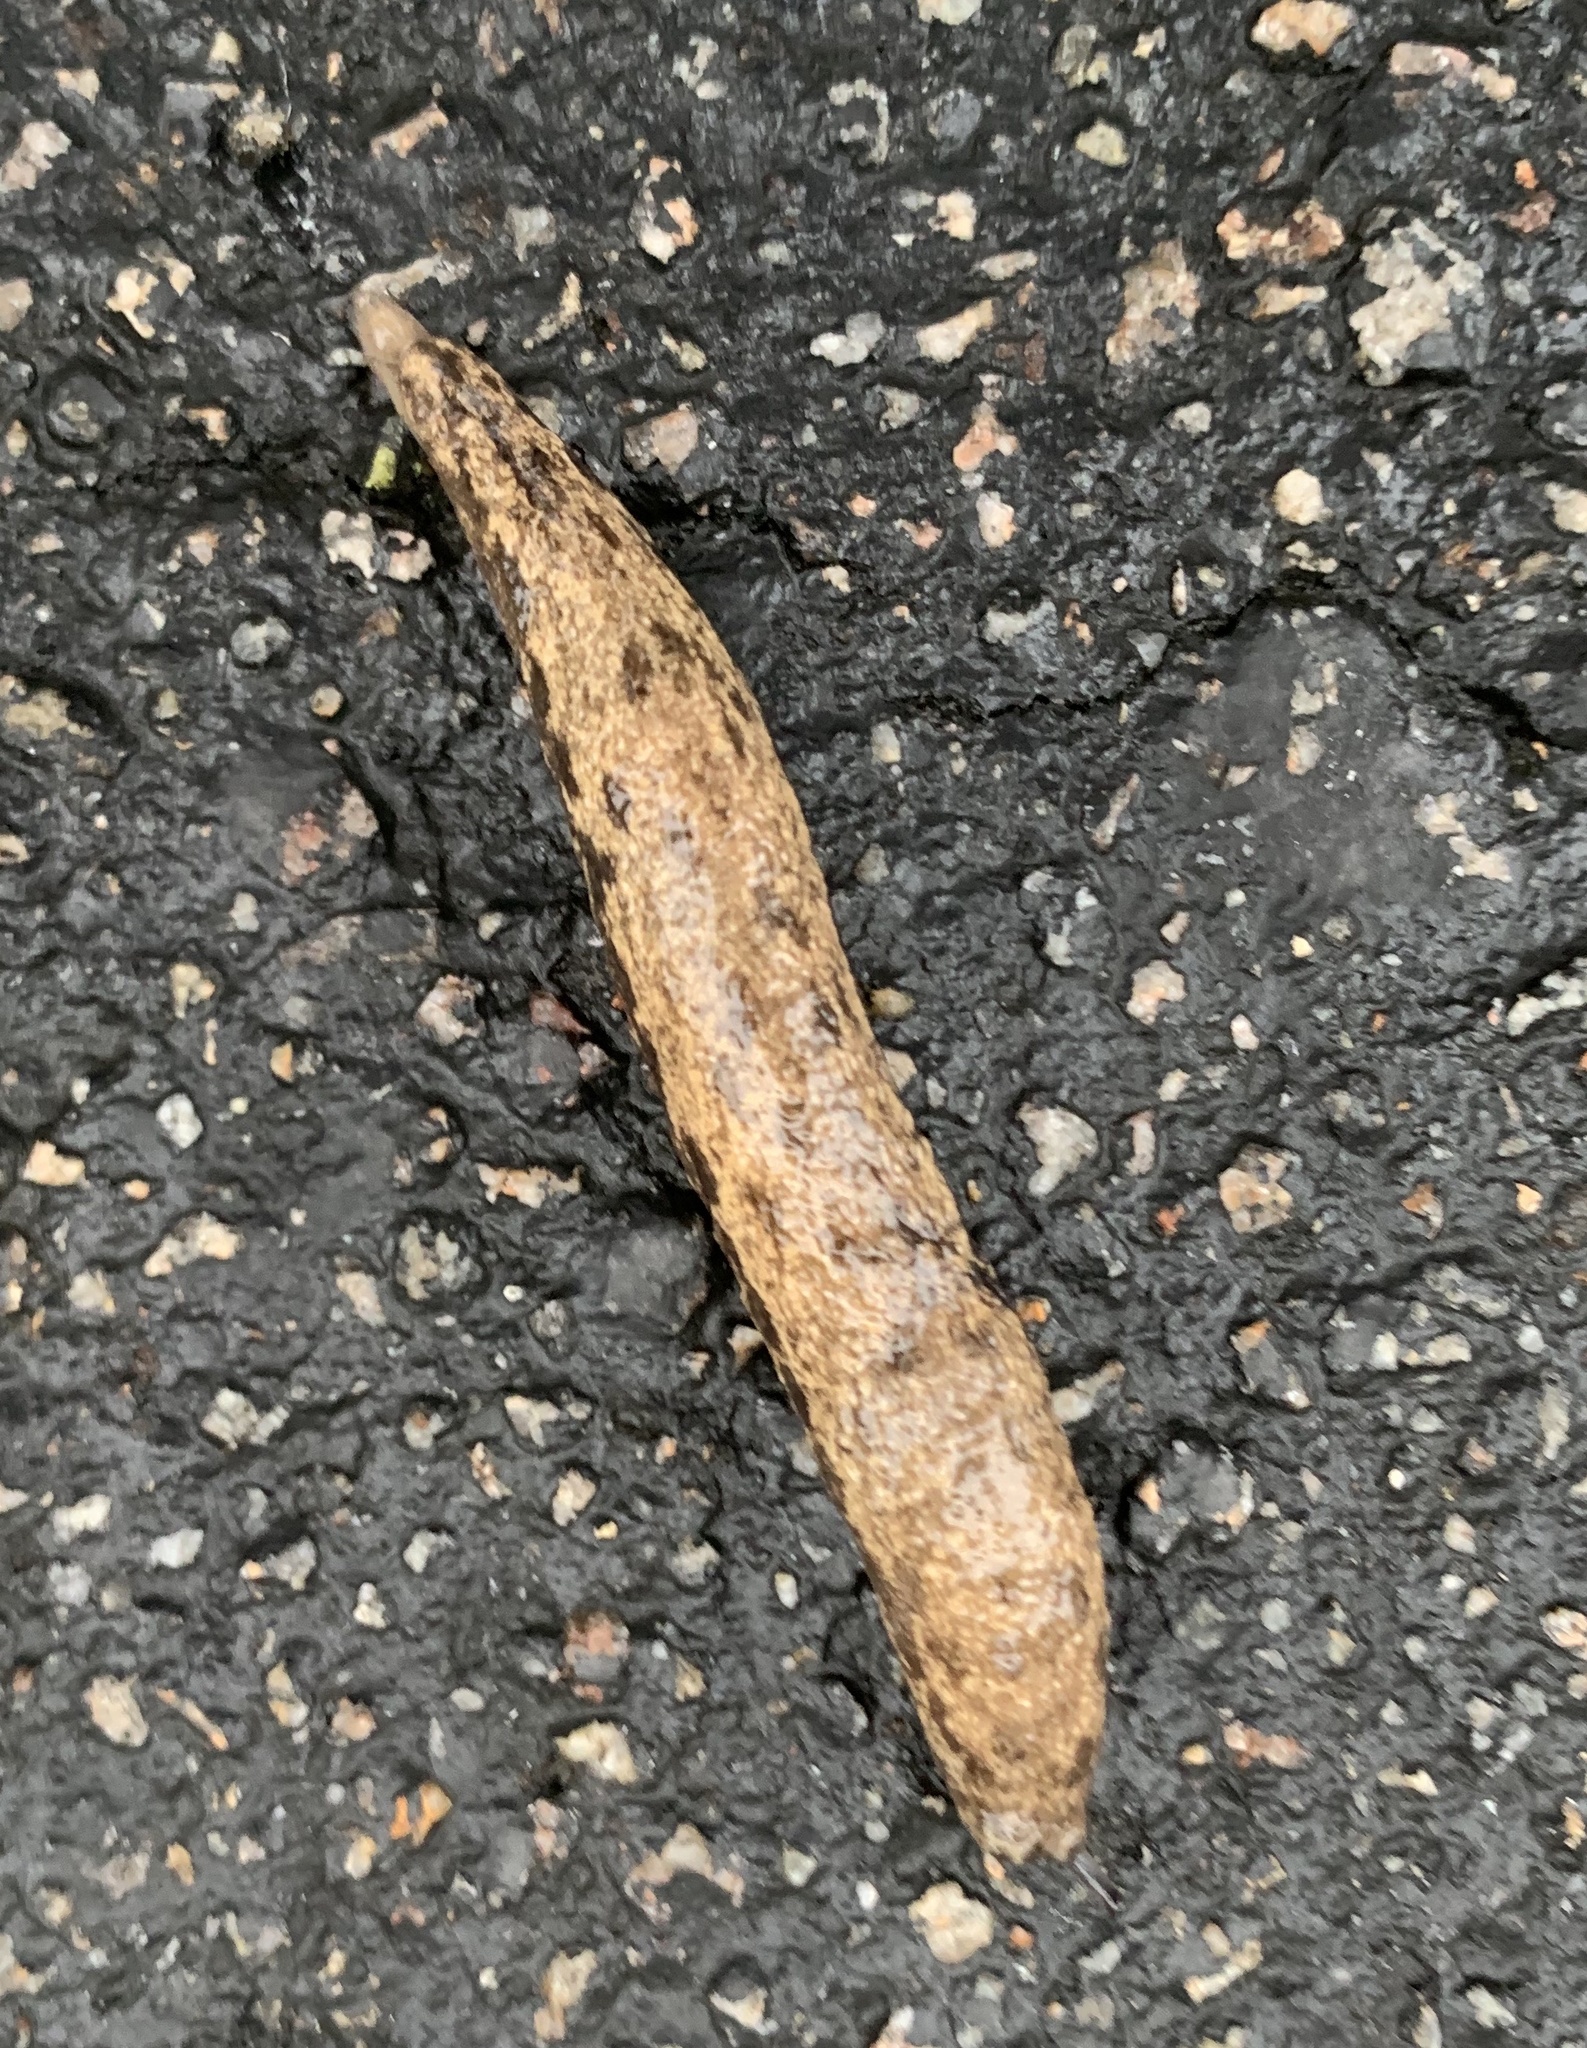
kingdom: Animalia
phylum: Mollusca
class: Gastropoda
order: Stylommatophora
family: Philomycidae
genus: Megapallifera
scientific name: Megapallifera mutabilis
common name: Changeable mantleslug
